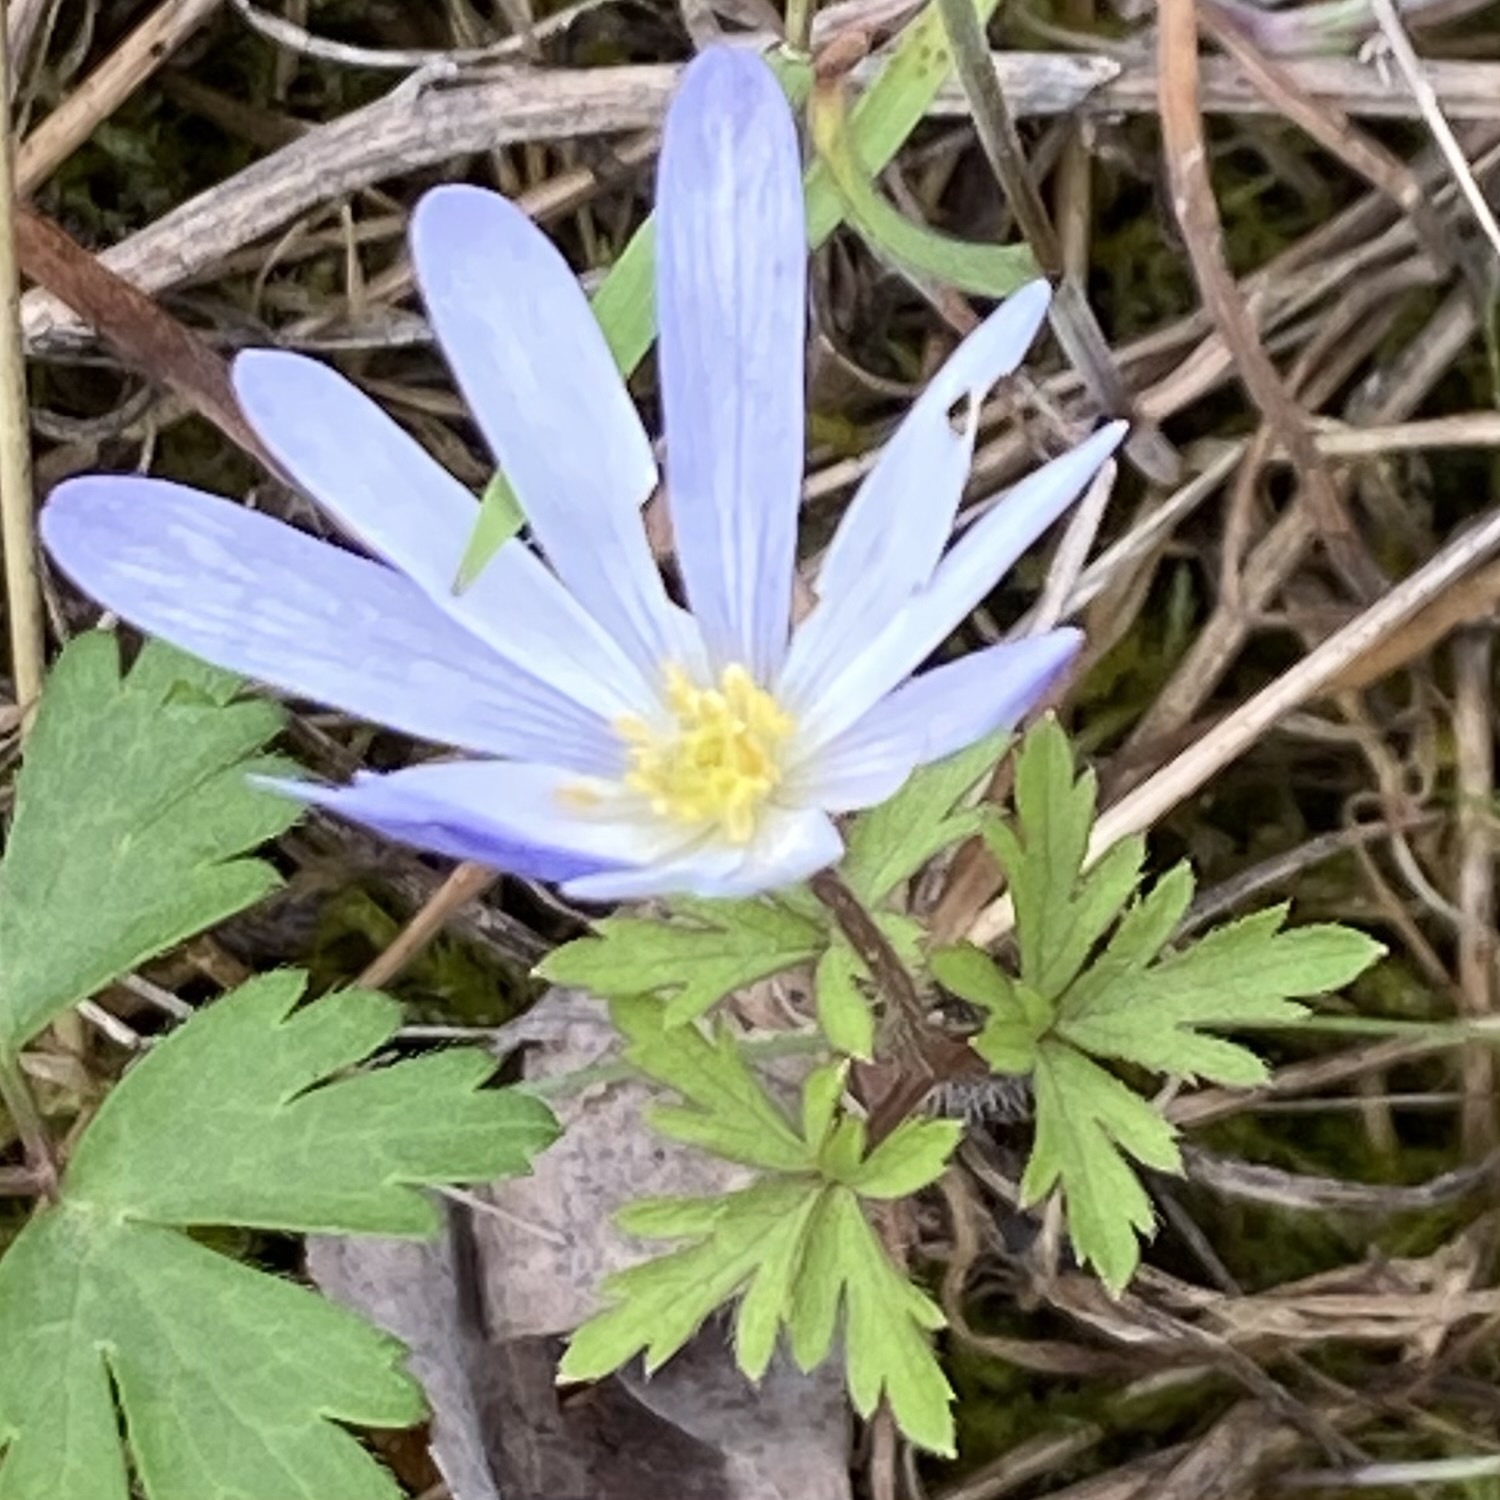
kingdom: Plantae
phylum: Tracheophyta
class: Magnoliopsida
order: Ranunculales
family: Ranunculaceae
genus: Anemone
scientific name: Anemone blanda
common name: Balkan anemone
